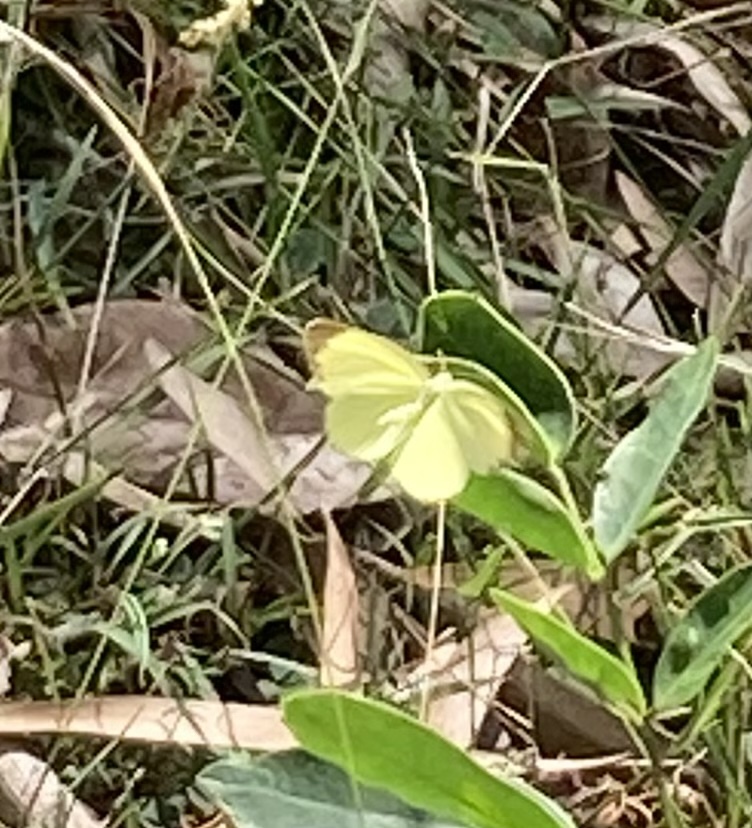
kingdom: Animalia
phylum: Arthropoda
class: Insecta
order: Lepidoptera
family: Pieridae
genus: Eurema
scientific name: Eurema smilax
